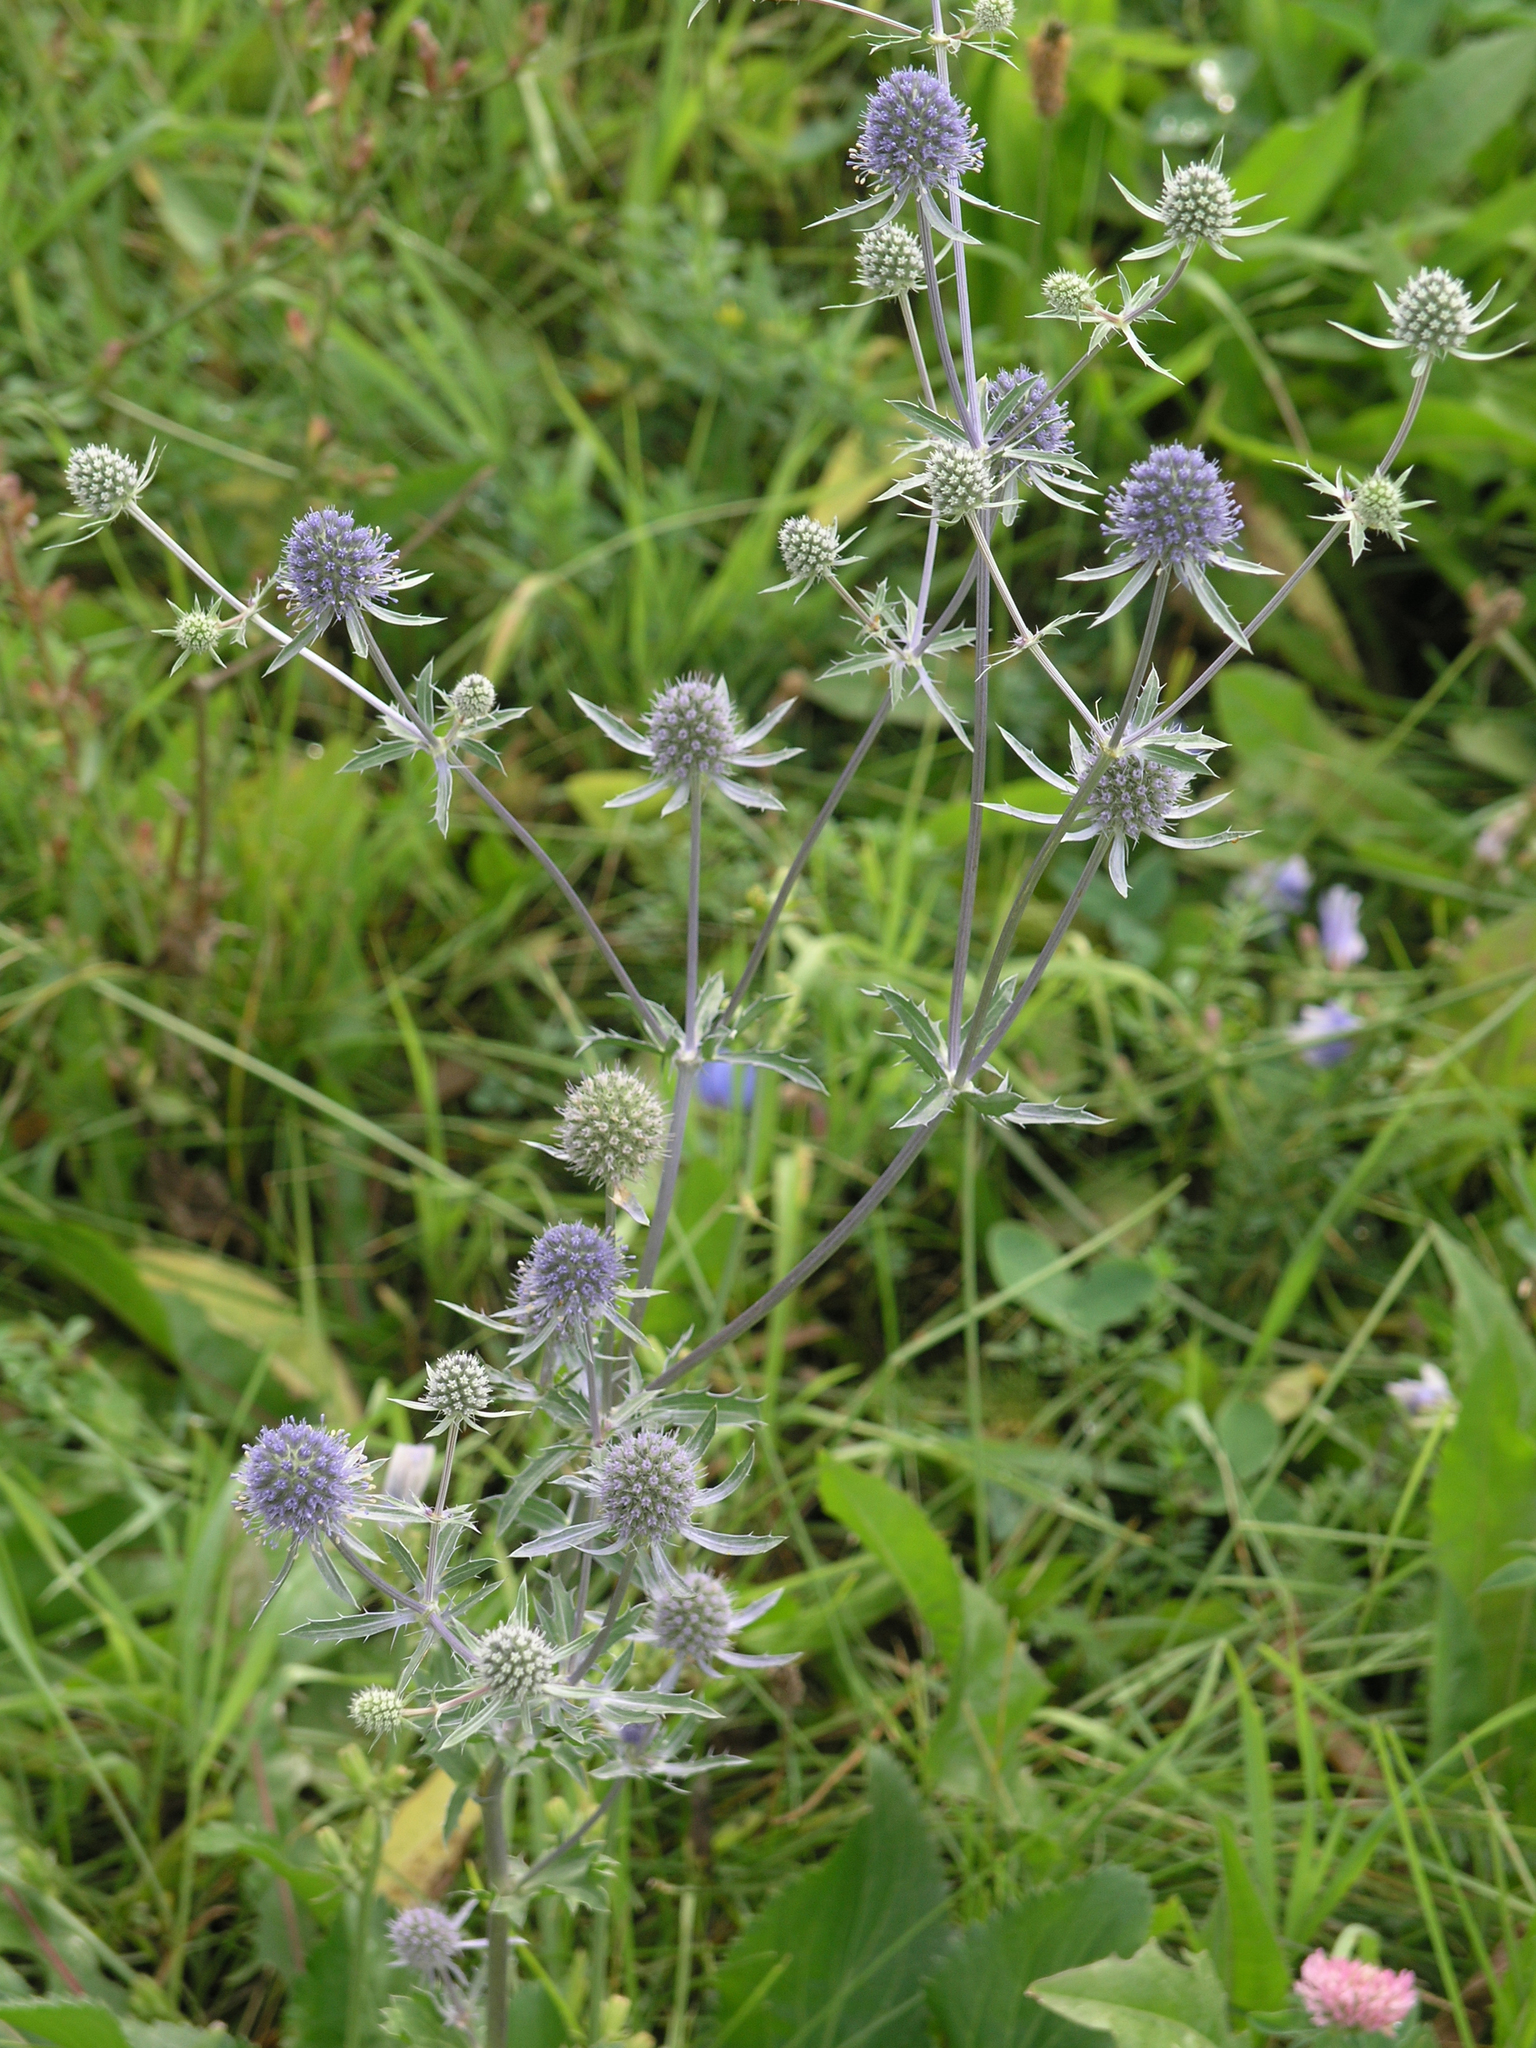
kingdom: Plantae
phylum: Tracheophyta
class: Magnoliopsida
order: Apiales
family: Apiaceae
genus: Eryngium
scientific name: Eryngium planum
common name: Blue eryngo
